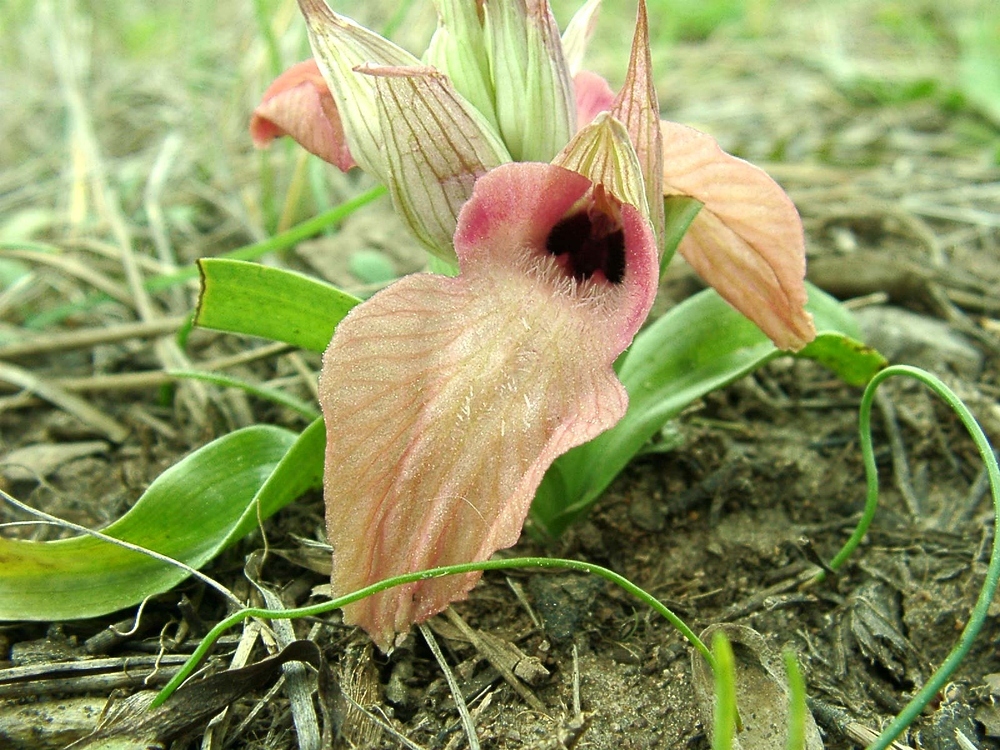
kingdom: Plantae
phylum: Tracheophyta
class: Liliopsida
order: Asparagales
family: Orchidaceae
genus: Serapias
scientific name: Serapias neglecta
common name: Neglected serapias
